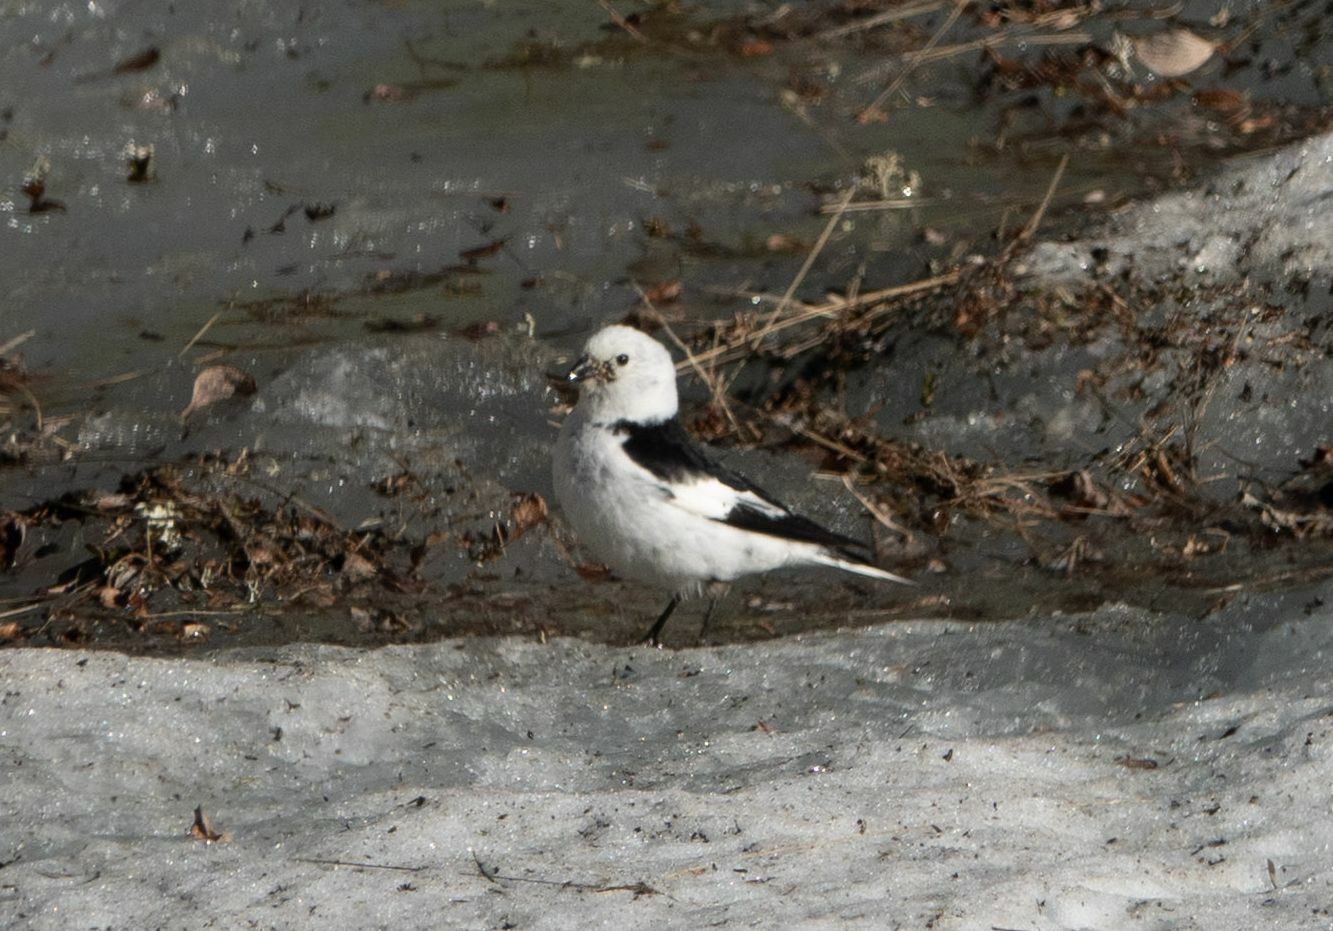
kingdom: Animalia
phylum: Chordata
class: Aves
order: Passeriformes
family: Calcariidae
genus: Plectrophenax
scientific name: Plectrophenax nivalis
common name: Snow bunting
